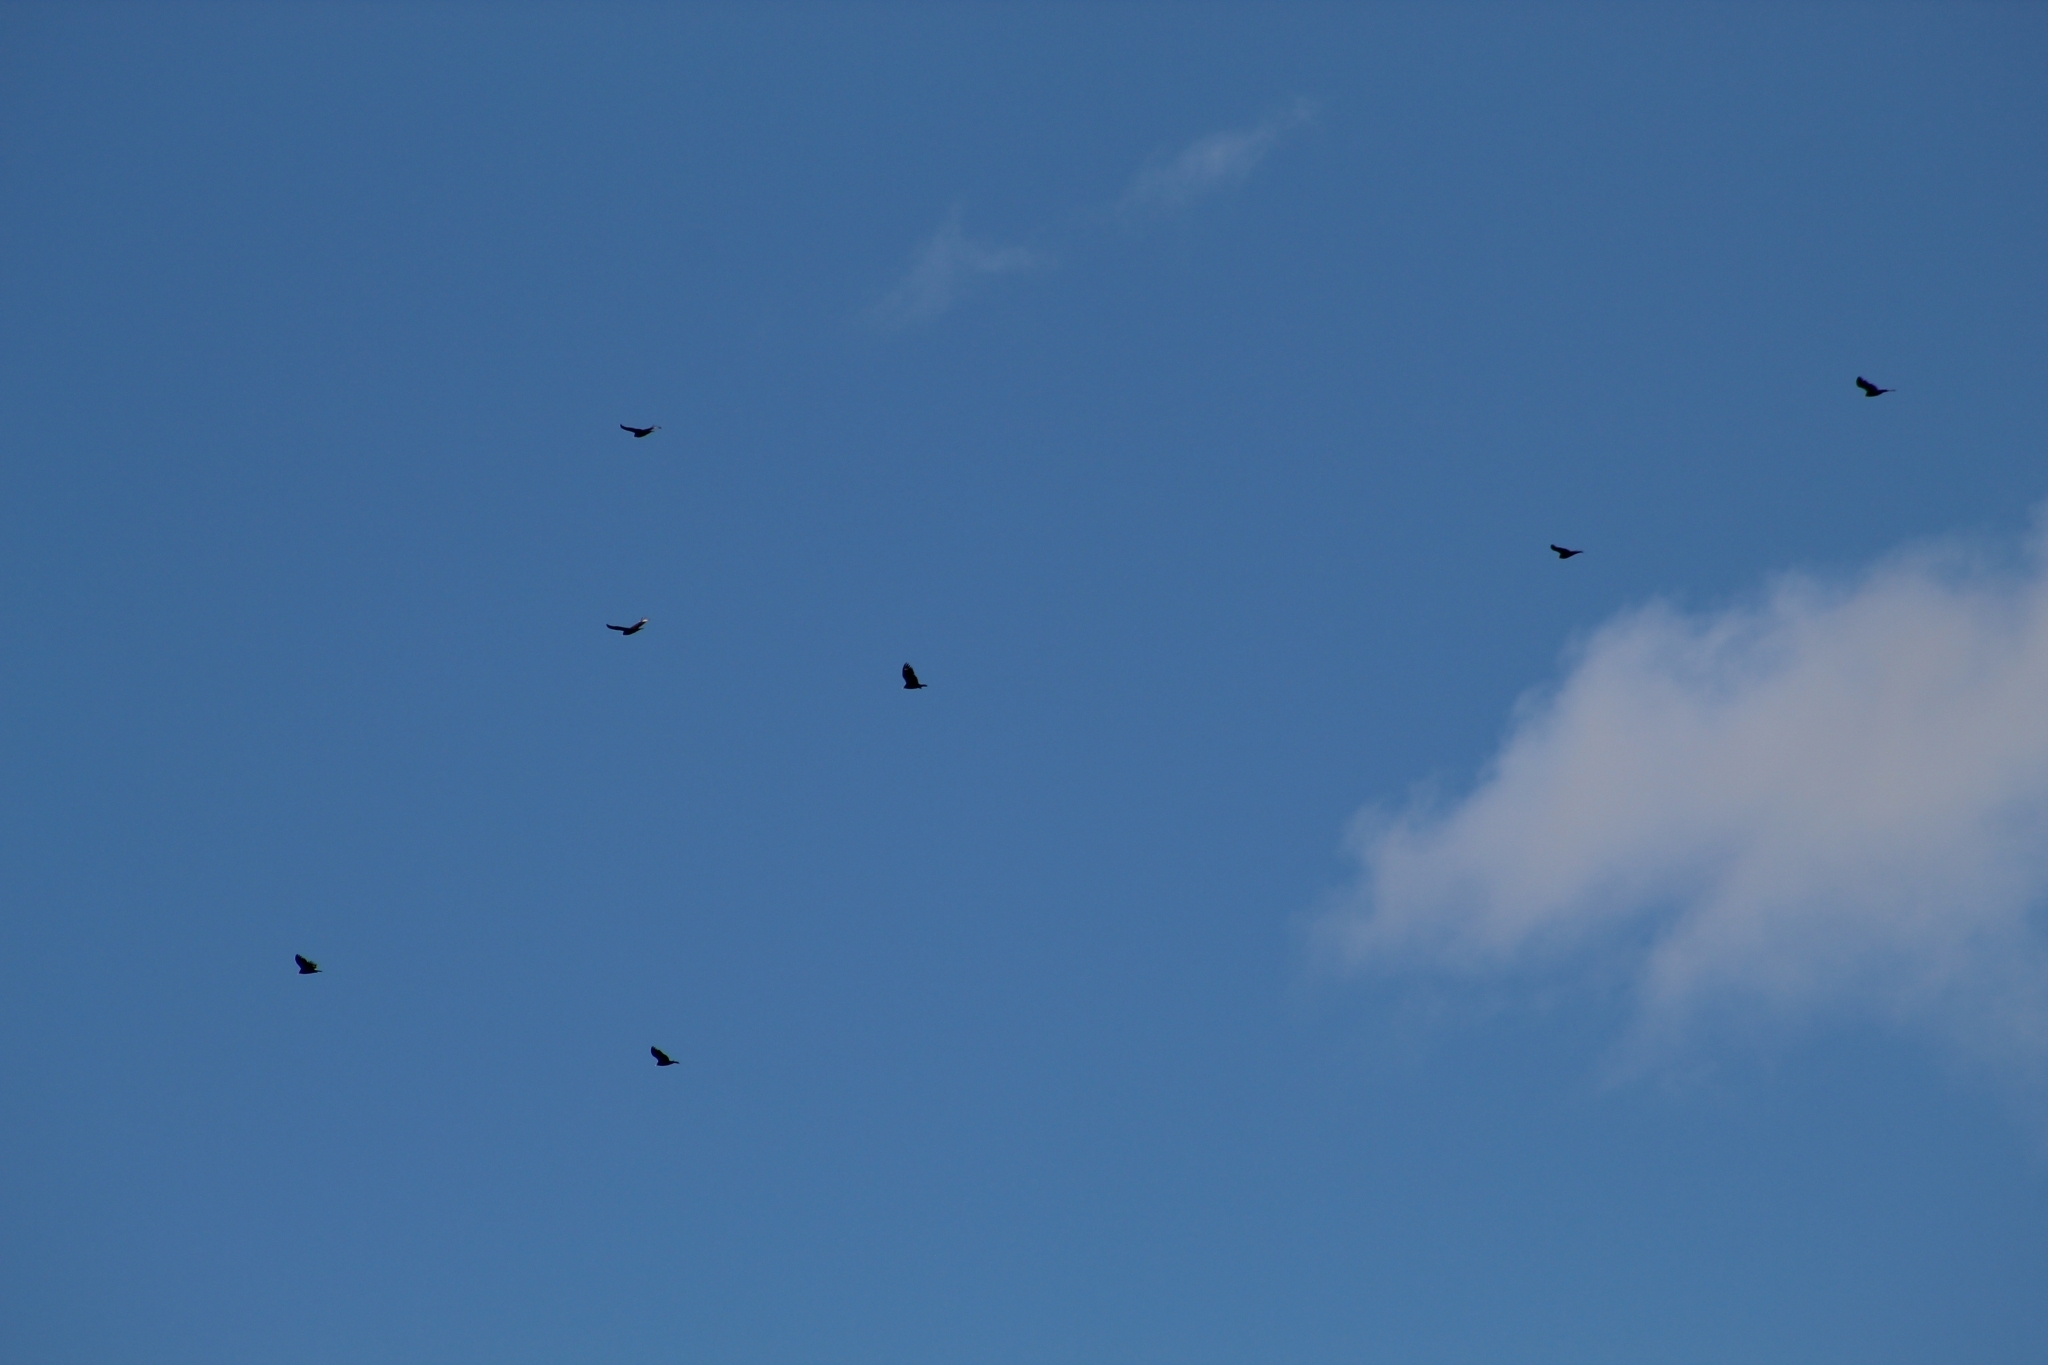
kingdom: Animalia
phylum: Chordata
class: Aves
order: Accipitriformes
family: Cathartidae
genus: Cathartes
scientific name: Cathartes aura
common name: Turkey vulture
